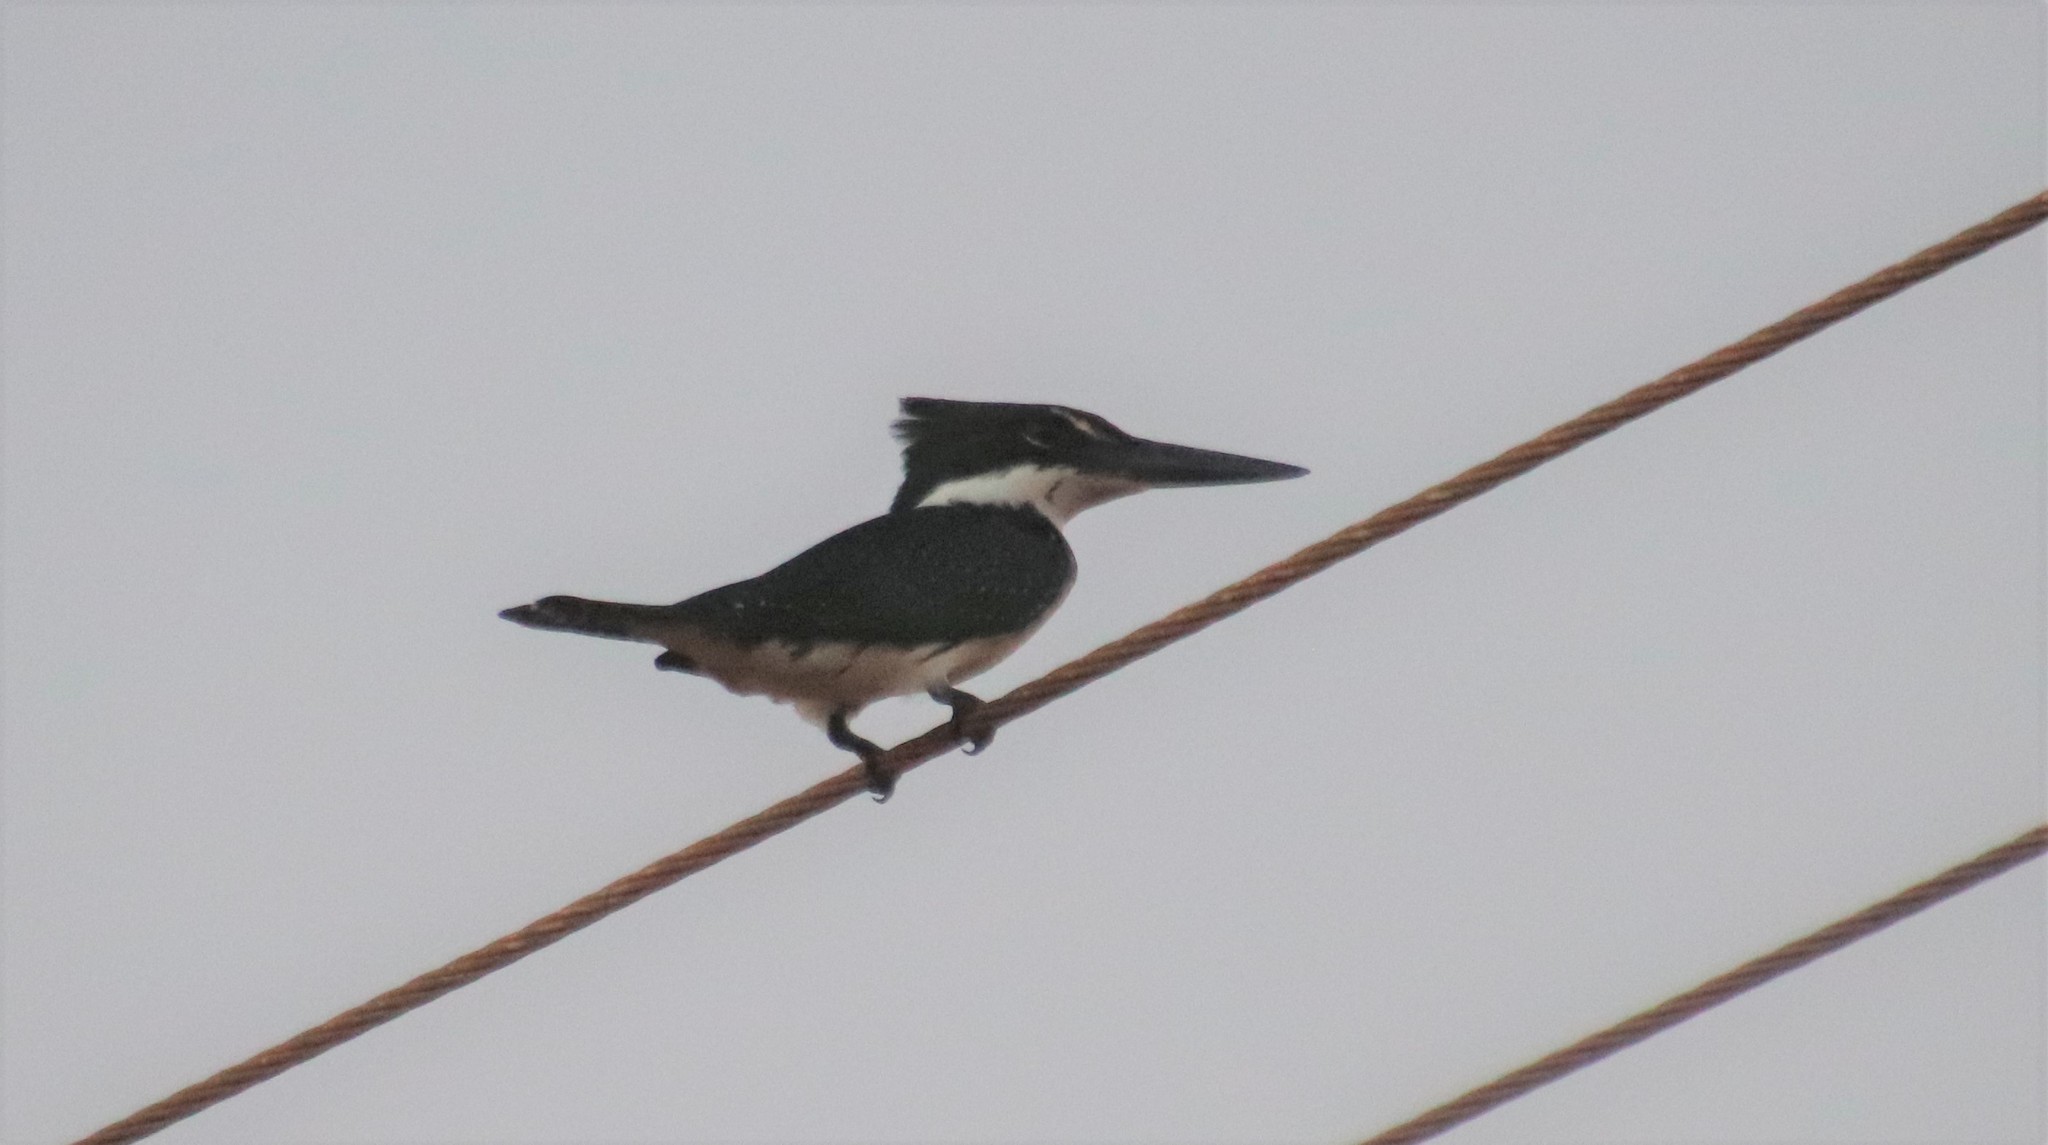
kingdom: Animalia
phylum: Chordata
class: Aves
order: Coraciiformes
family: Alcedinidae
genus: Chloroceryle
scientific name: Chloroceryle amazona
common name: Amazon kingfisher
